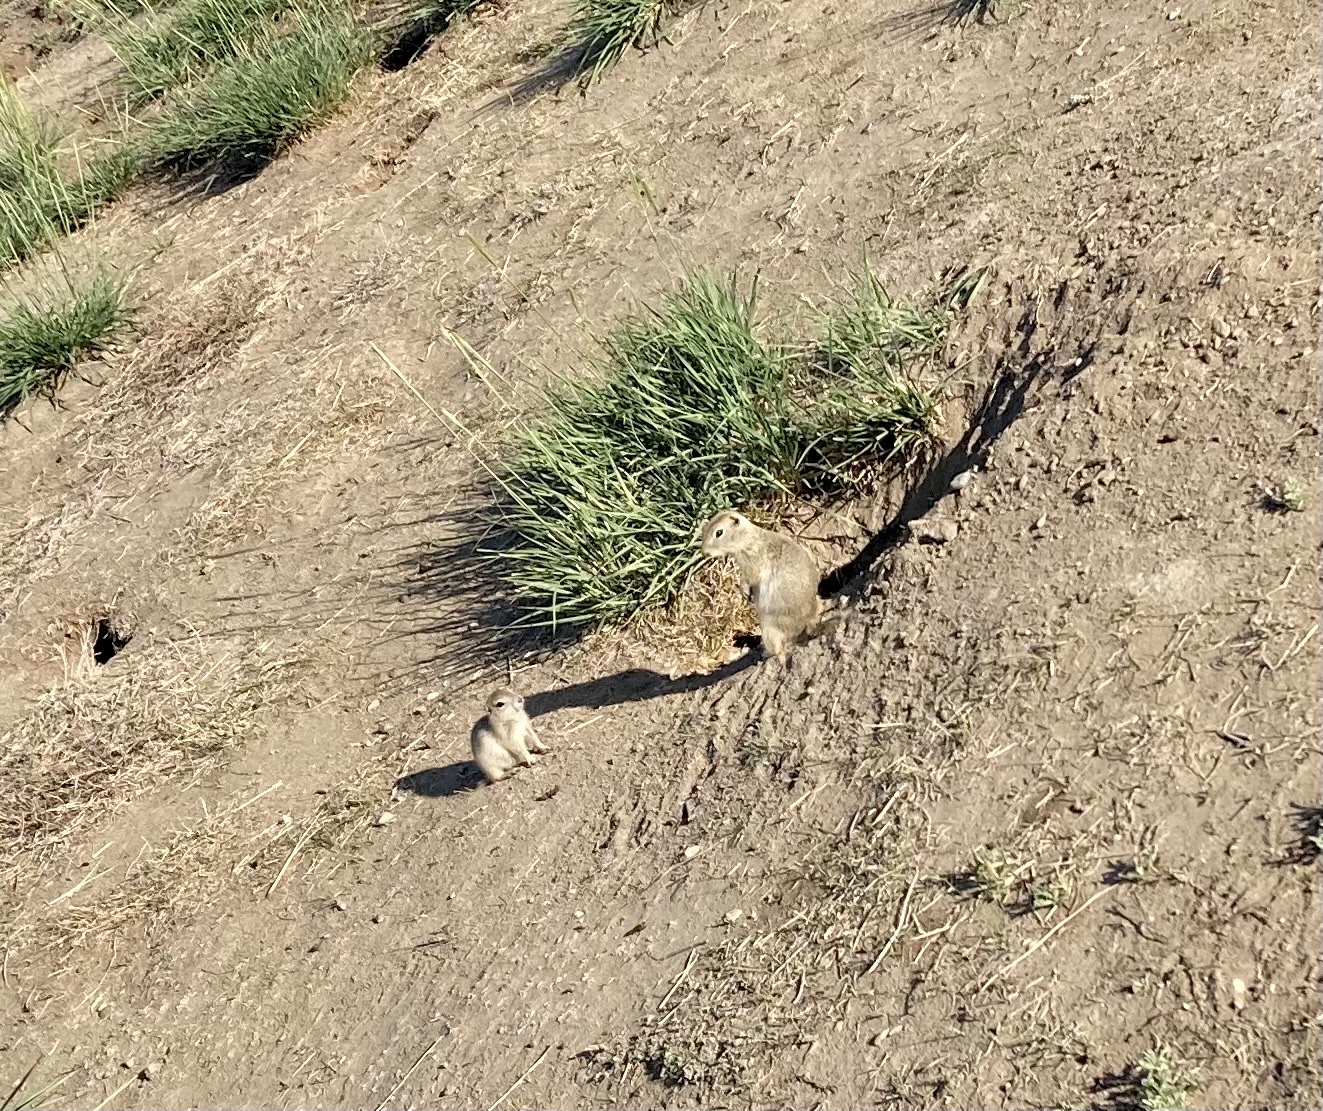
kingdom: Animalia
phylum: Chordata
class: Mammalia
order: Rodentia
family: Sciuridae
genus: Urocitellus
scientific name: Urocitellus richardsonii
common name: Richardson's ground squirrel
